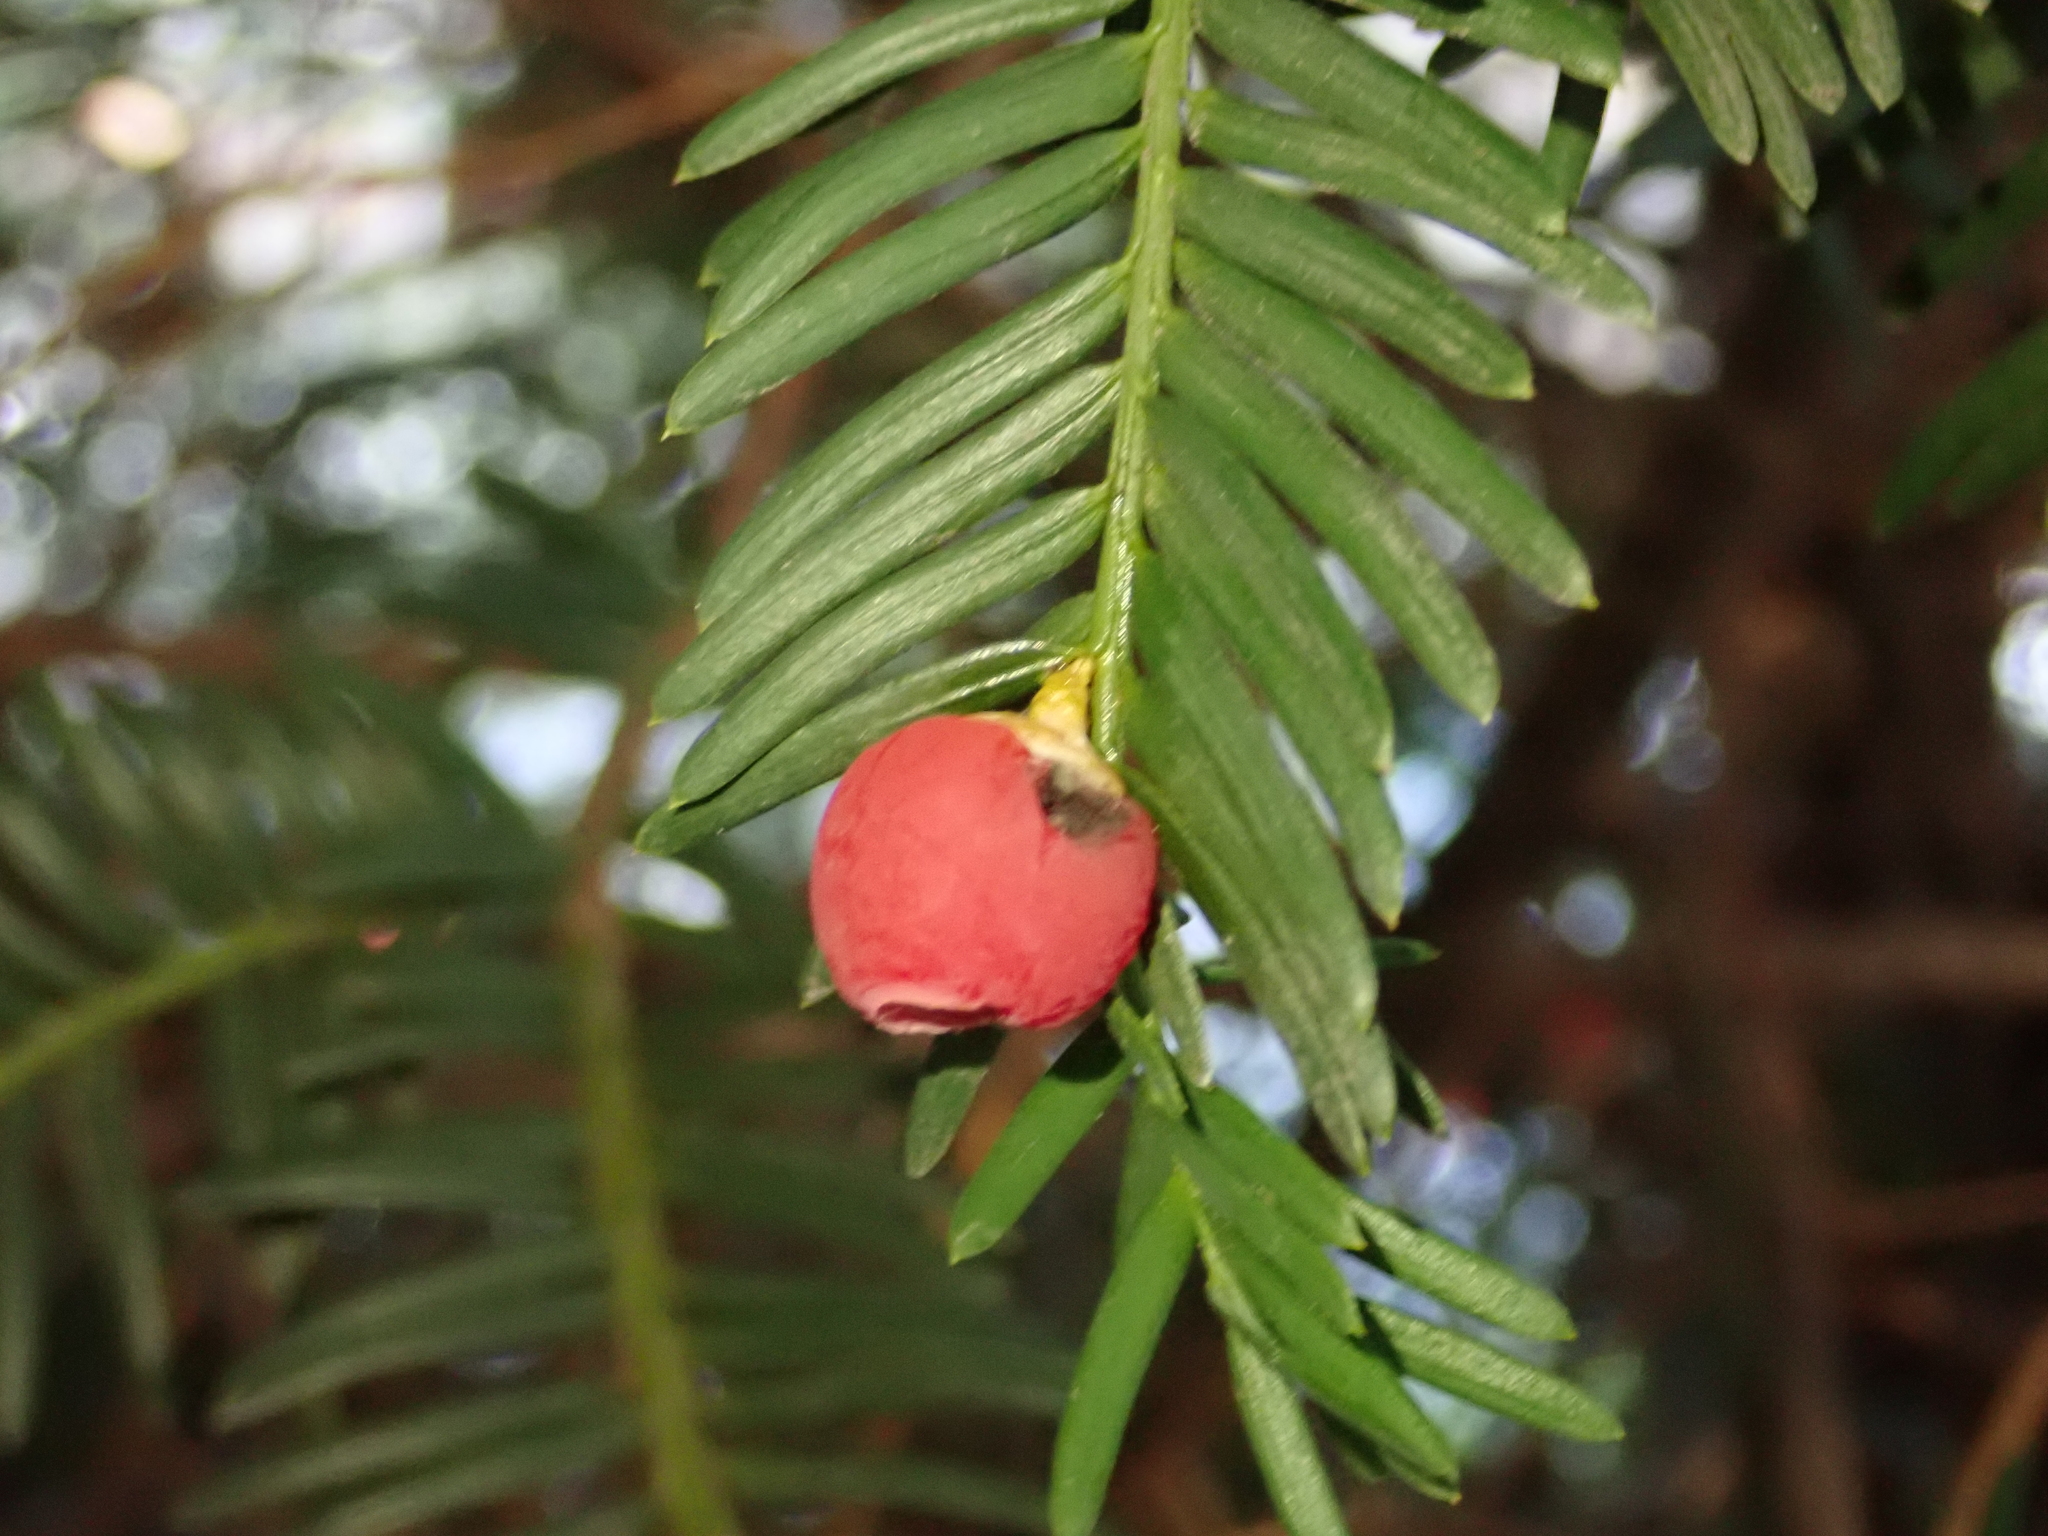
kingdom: Plantae
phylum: Tracheophyta
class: Pinopsida
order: Pinales
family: Taxaceae
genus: Taxus
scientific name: Taxus baccata
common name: Yew
